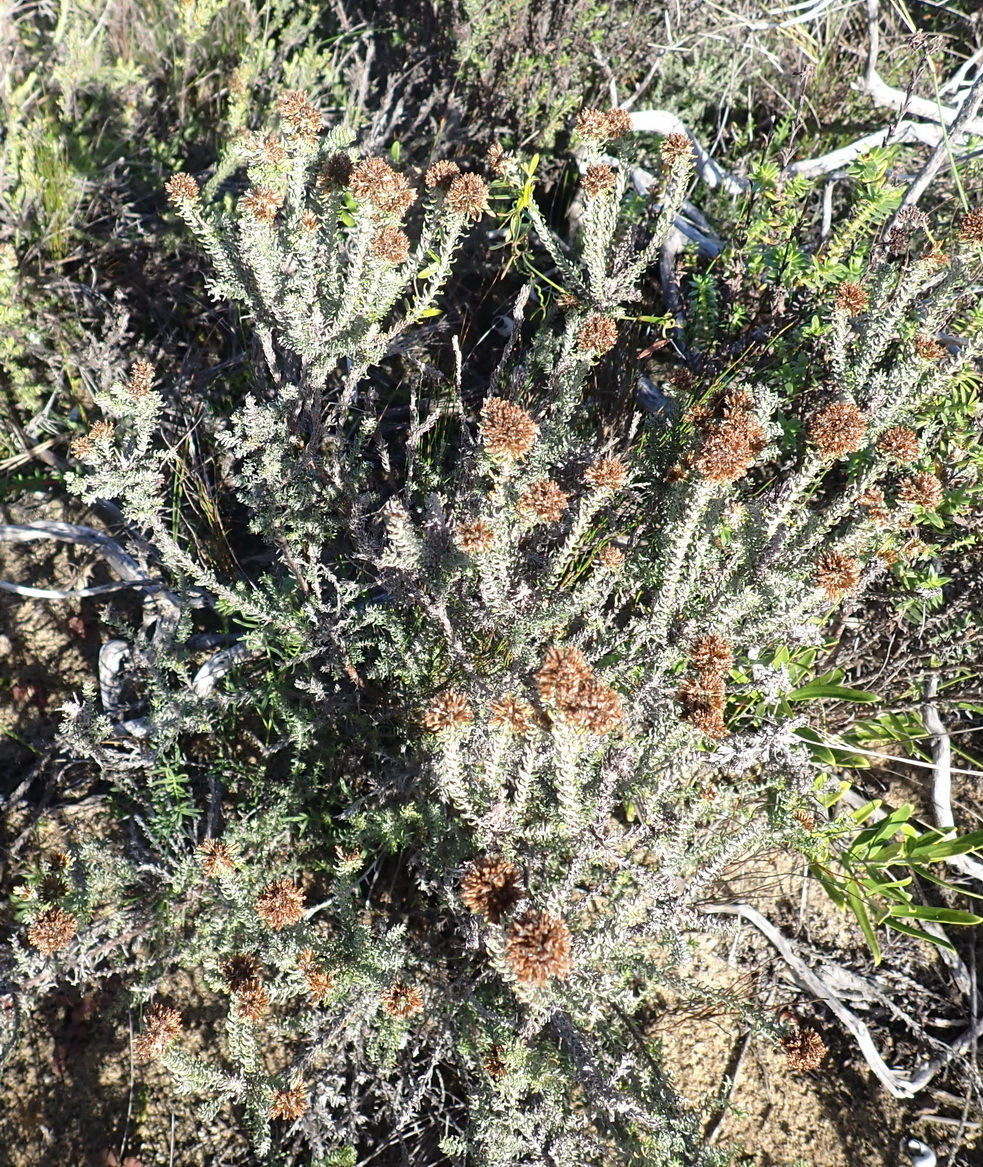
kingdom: Plantae
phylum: Tracheophyta
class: Magnoliopsida
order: Asterales
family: Asteraceae
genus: Disparago
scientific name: Disparago anomala
